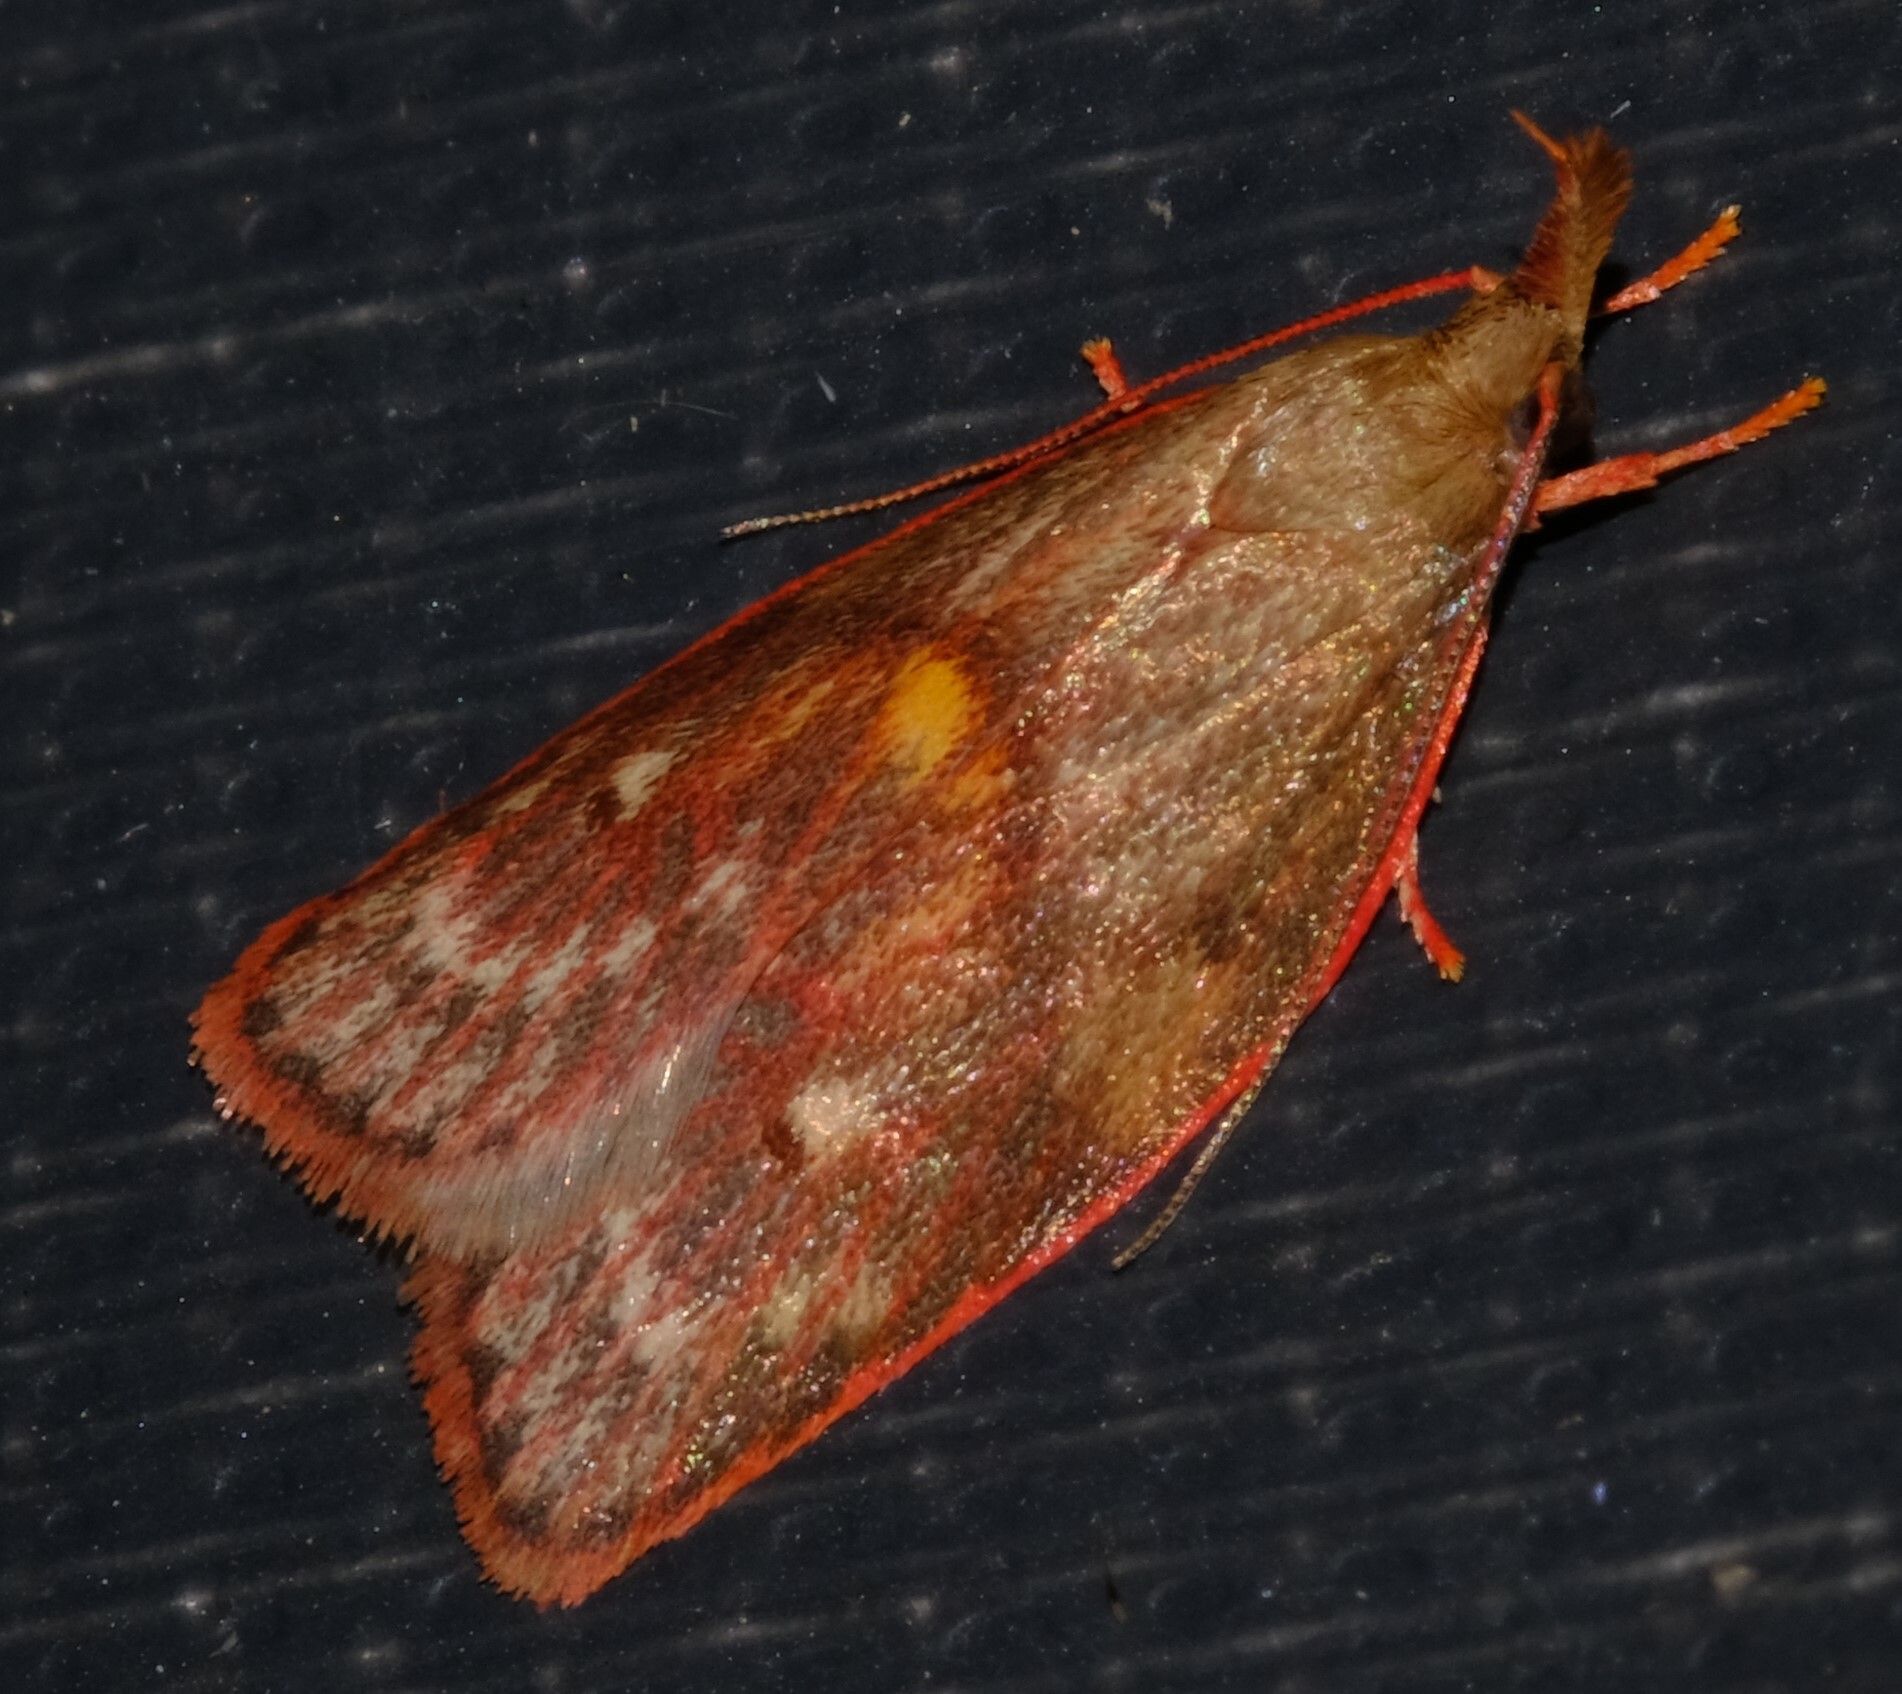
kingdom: Animalia
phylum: Arthropoda
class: Insecta
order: Lepidoptera
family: Depressariidae
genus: Enchocrates
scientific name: Enchocrates glaucopis
